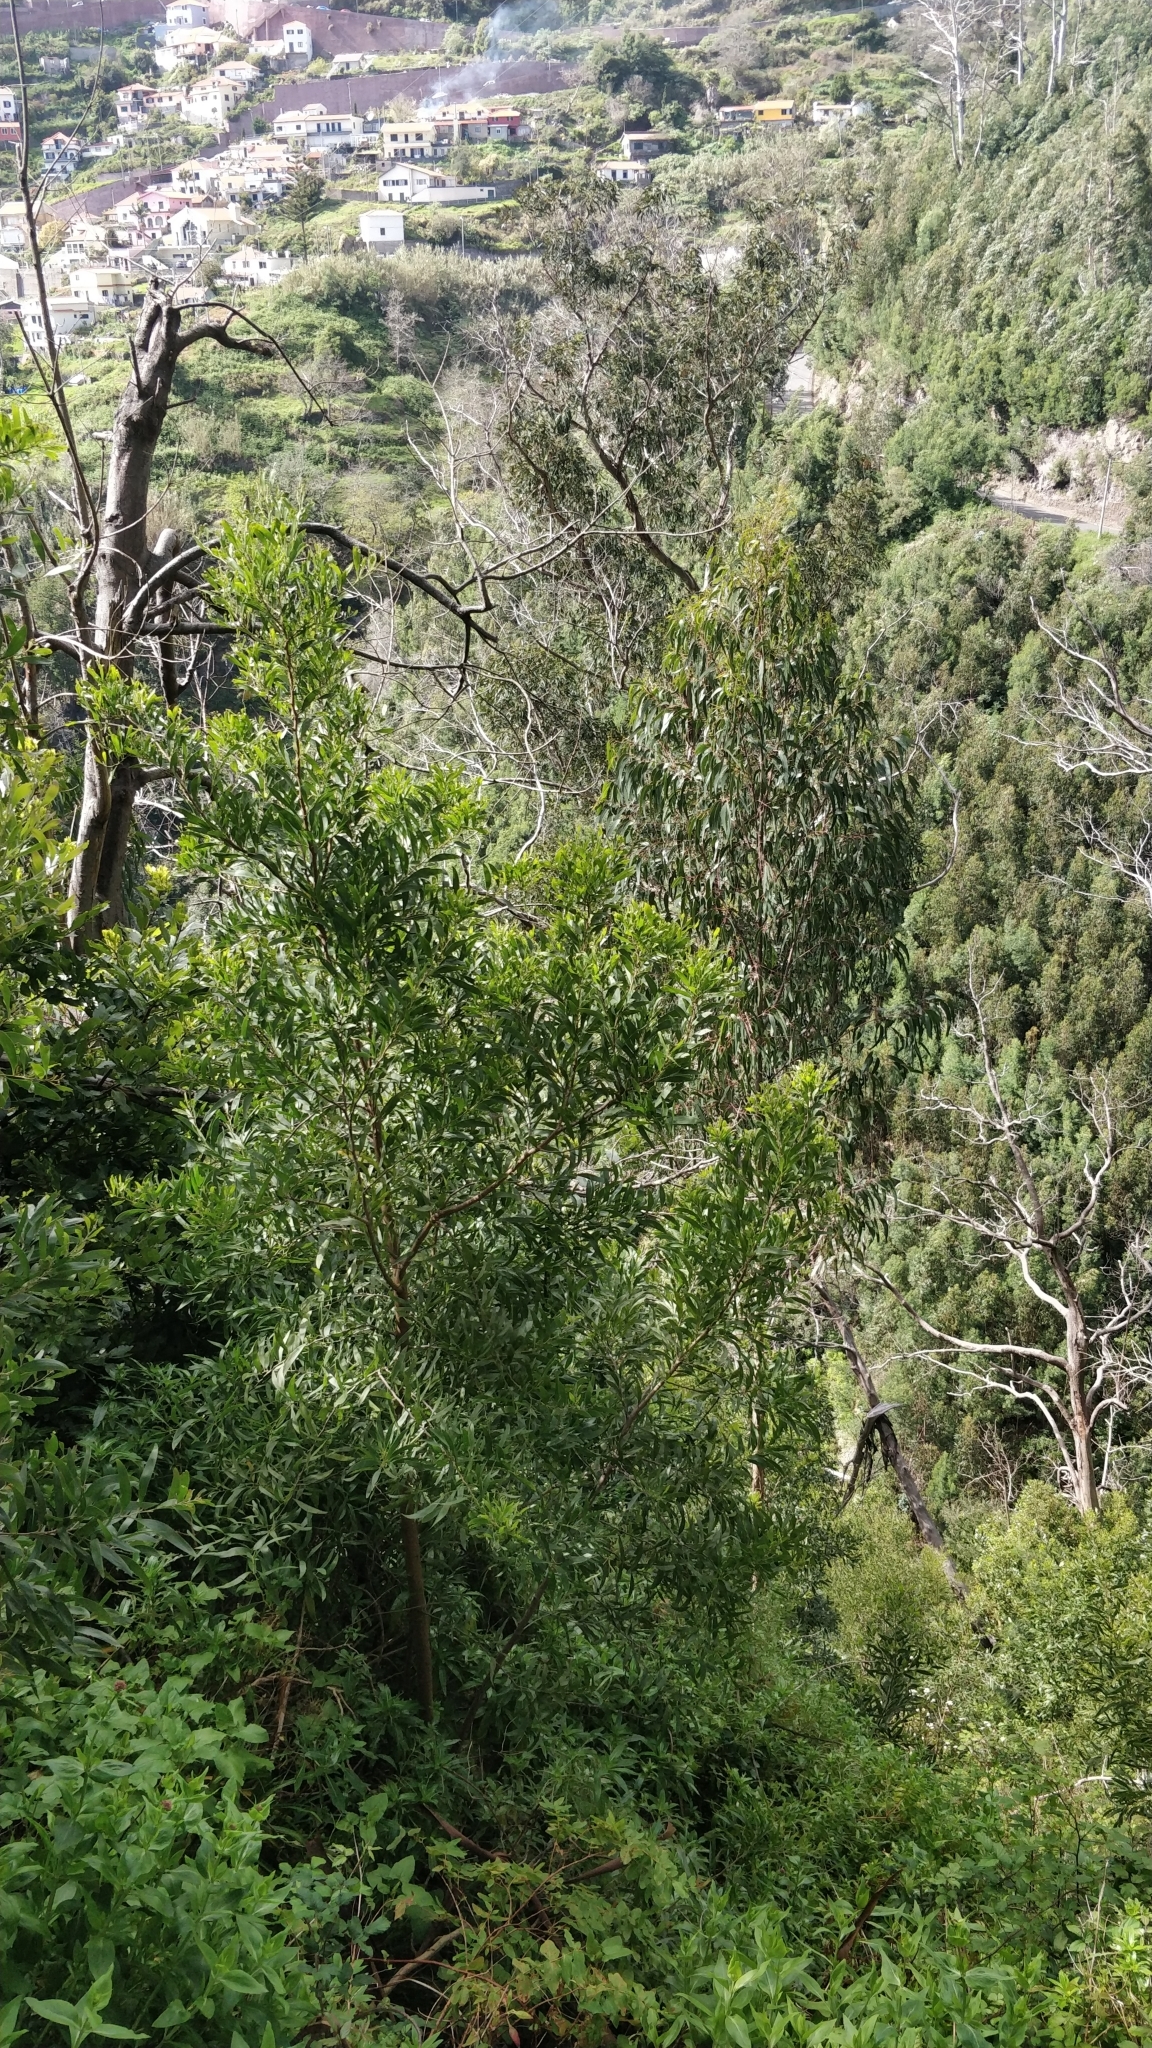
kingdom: Plantae
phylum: Tracheophyta
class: Magnoliopsida
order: Fabales
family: Fabaceae
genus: Acacia
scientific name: Acacia melanoxylon
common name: Blackwood
